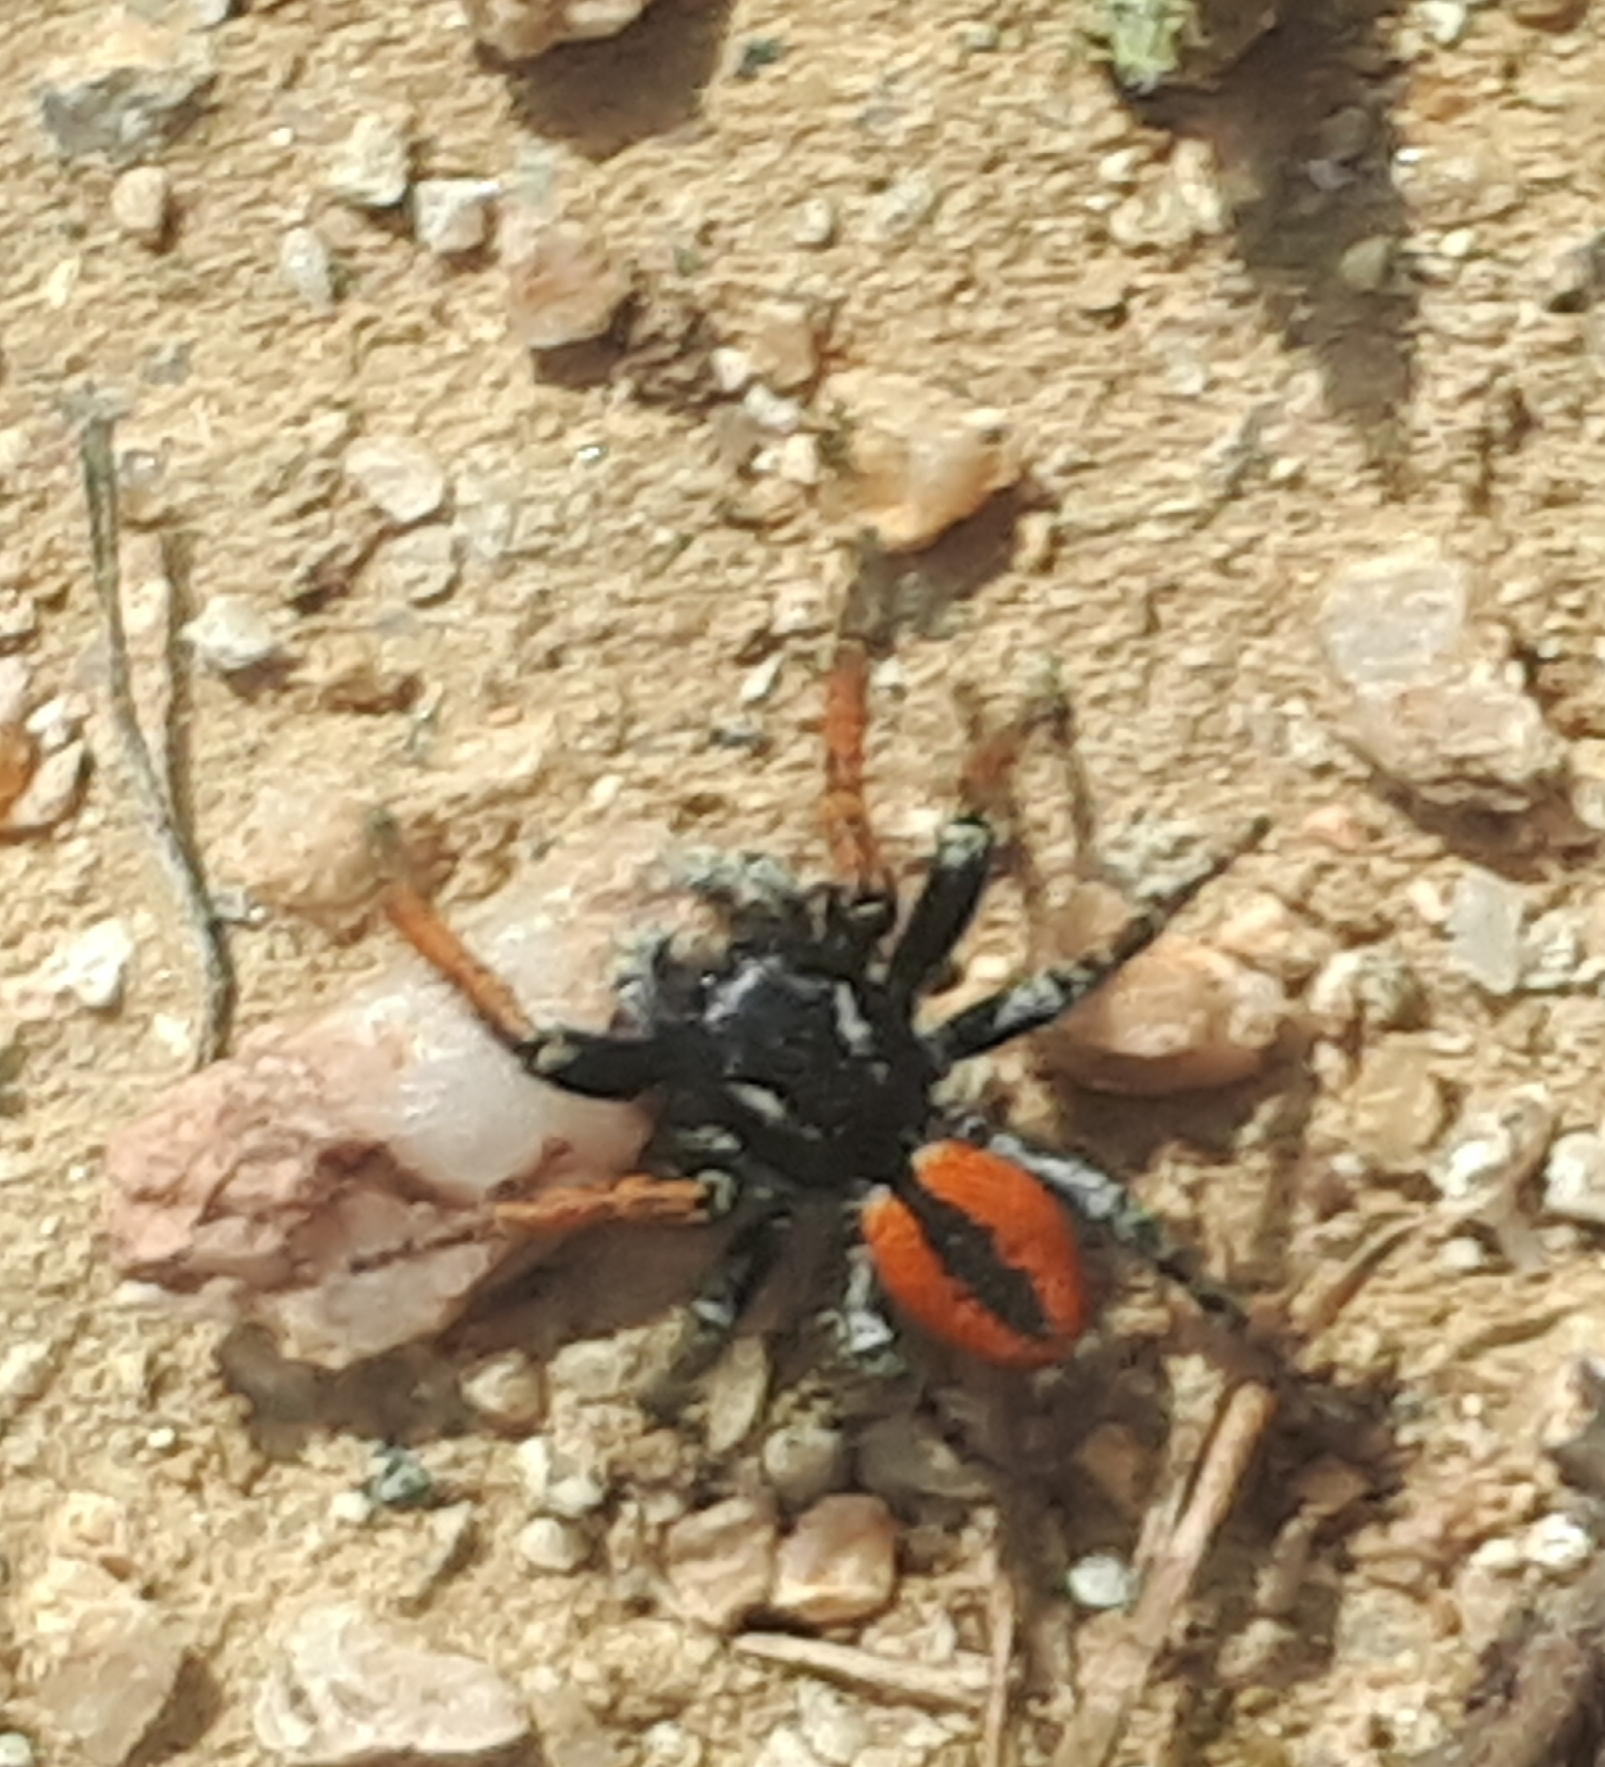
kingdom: Animalia
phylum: Arthropoda
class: Arachnida
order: Araneae
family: Salticidae
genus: Philaeus
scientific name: Philaeus chrysops
